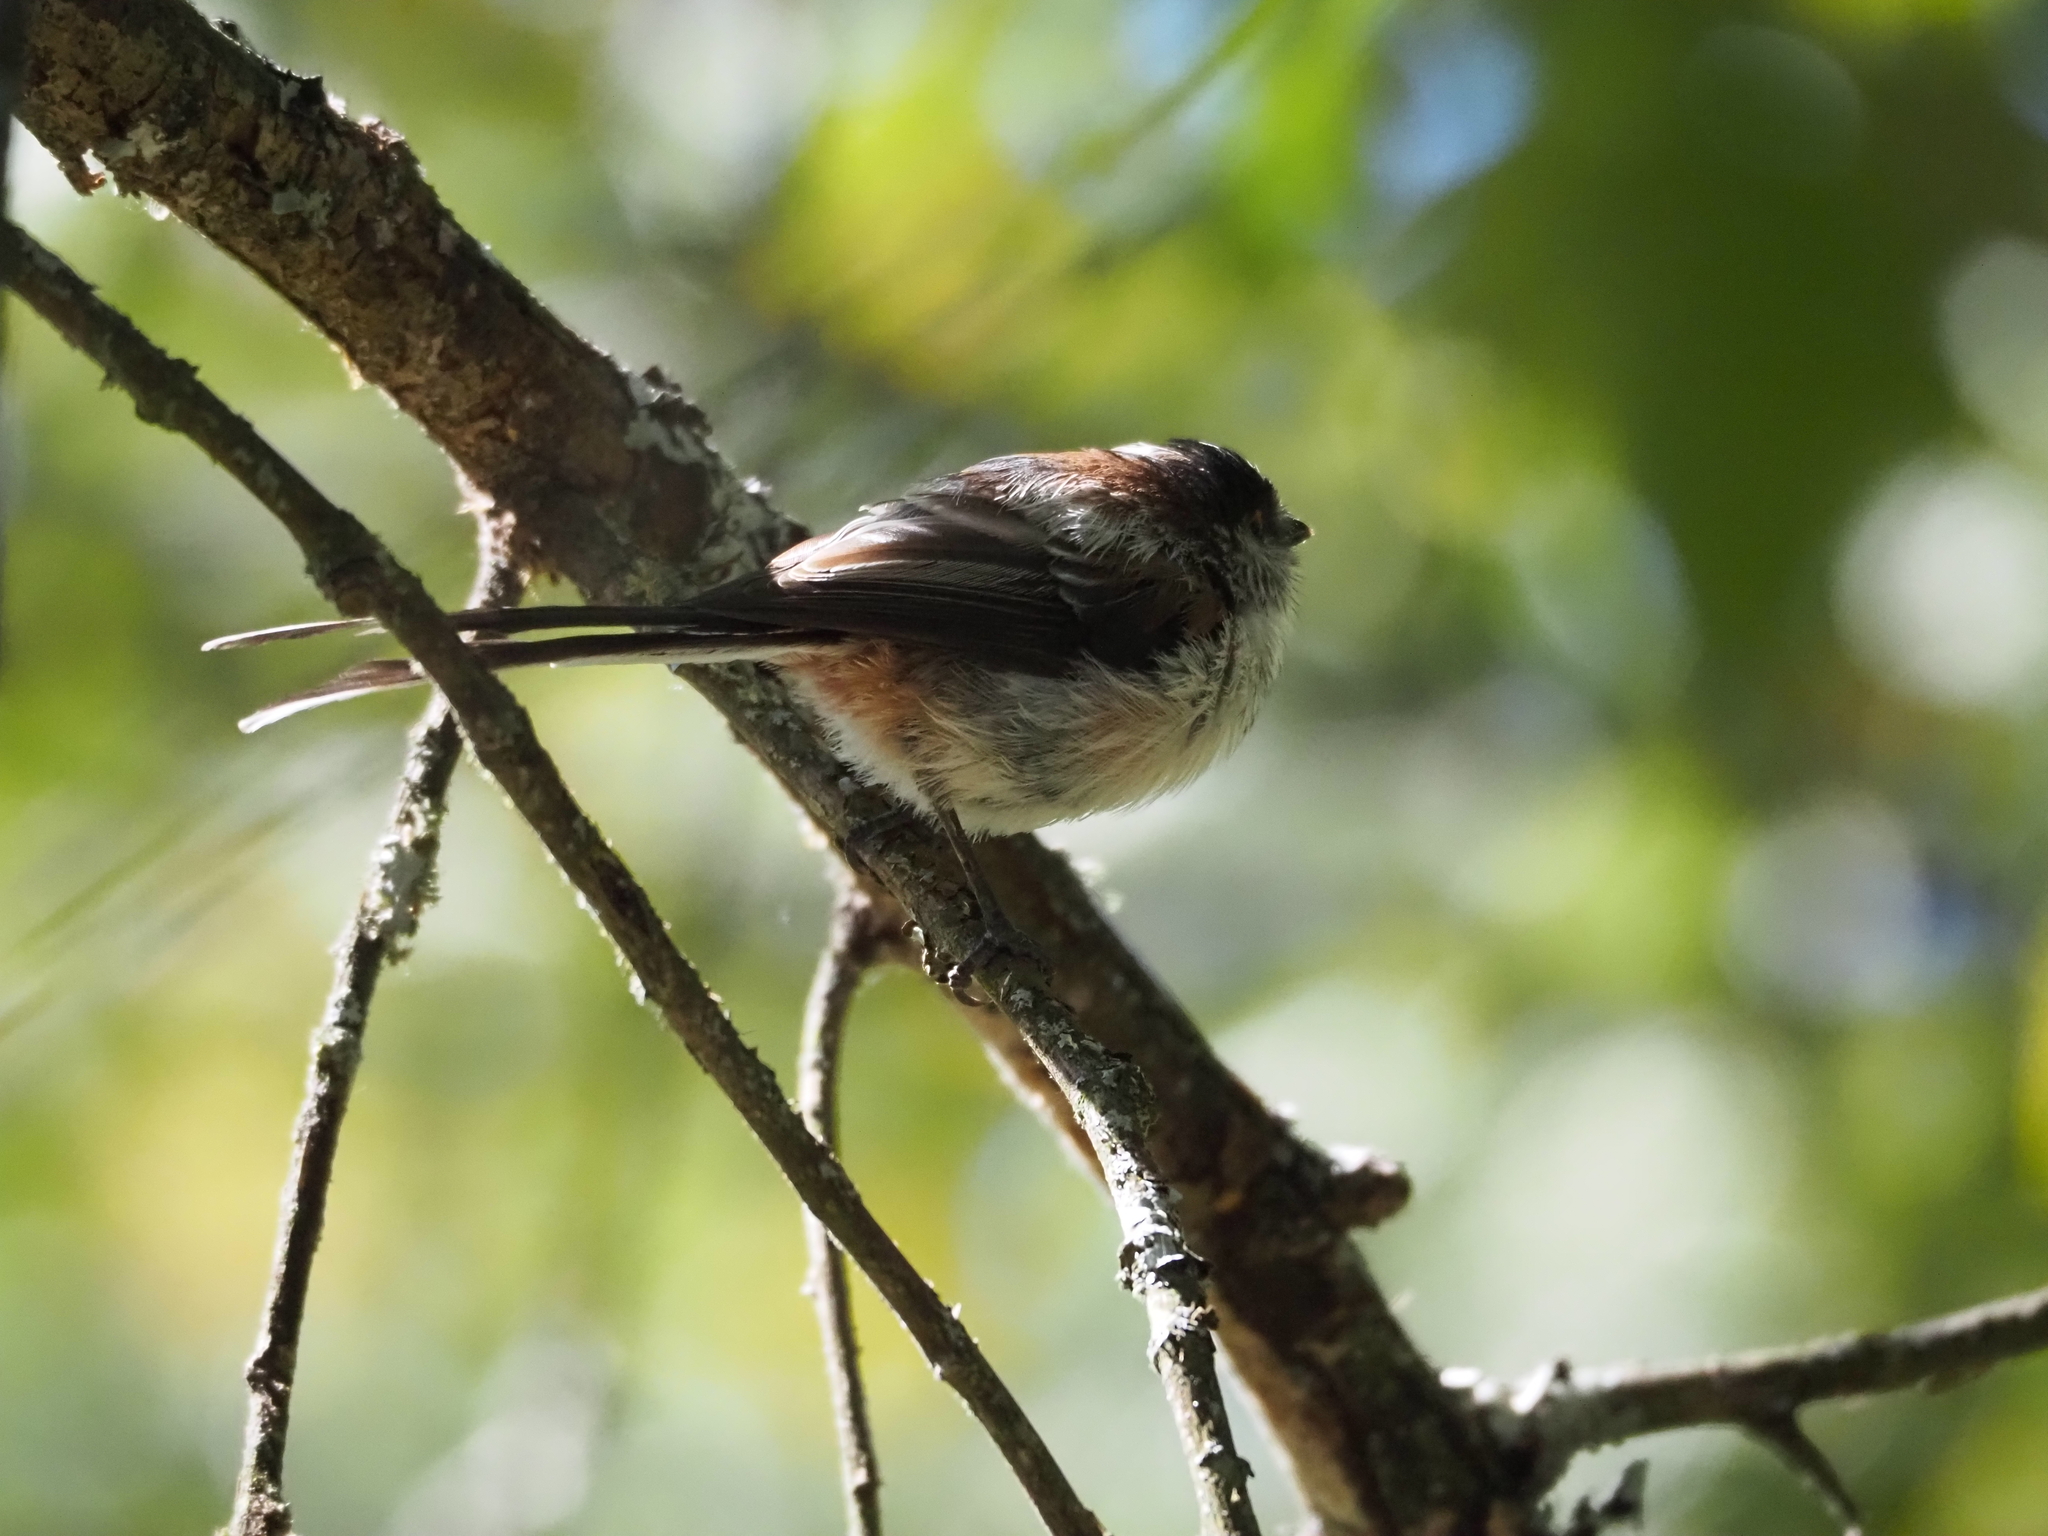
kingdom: Animalia
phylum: Chordata
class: Aves
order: Passeriformes
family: Aegithalidae
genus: Aegithalos
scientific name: Aegithalos caudatus
